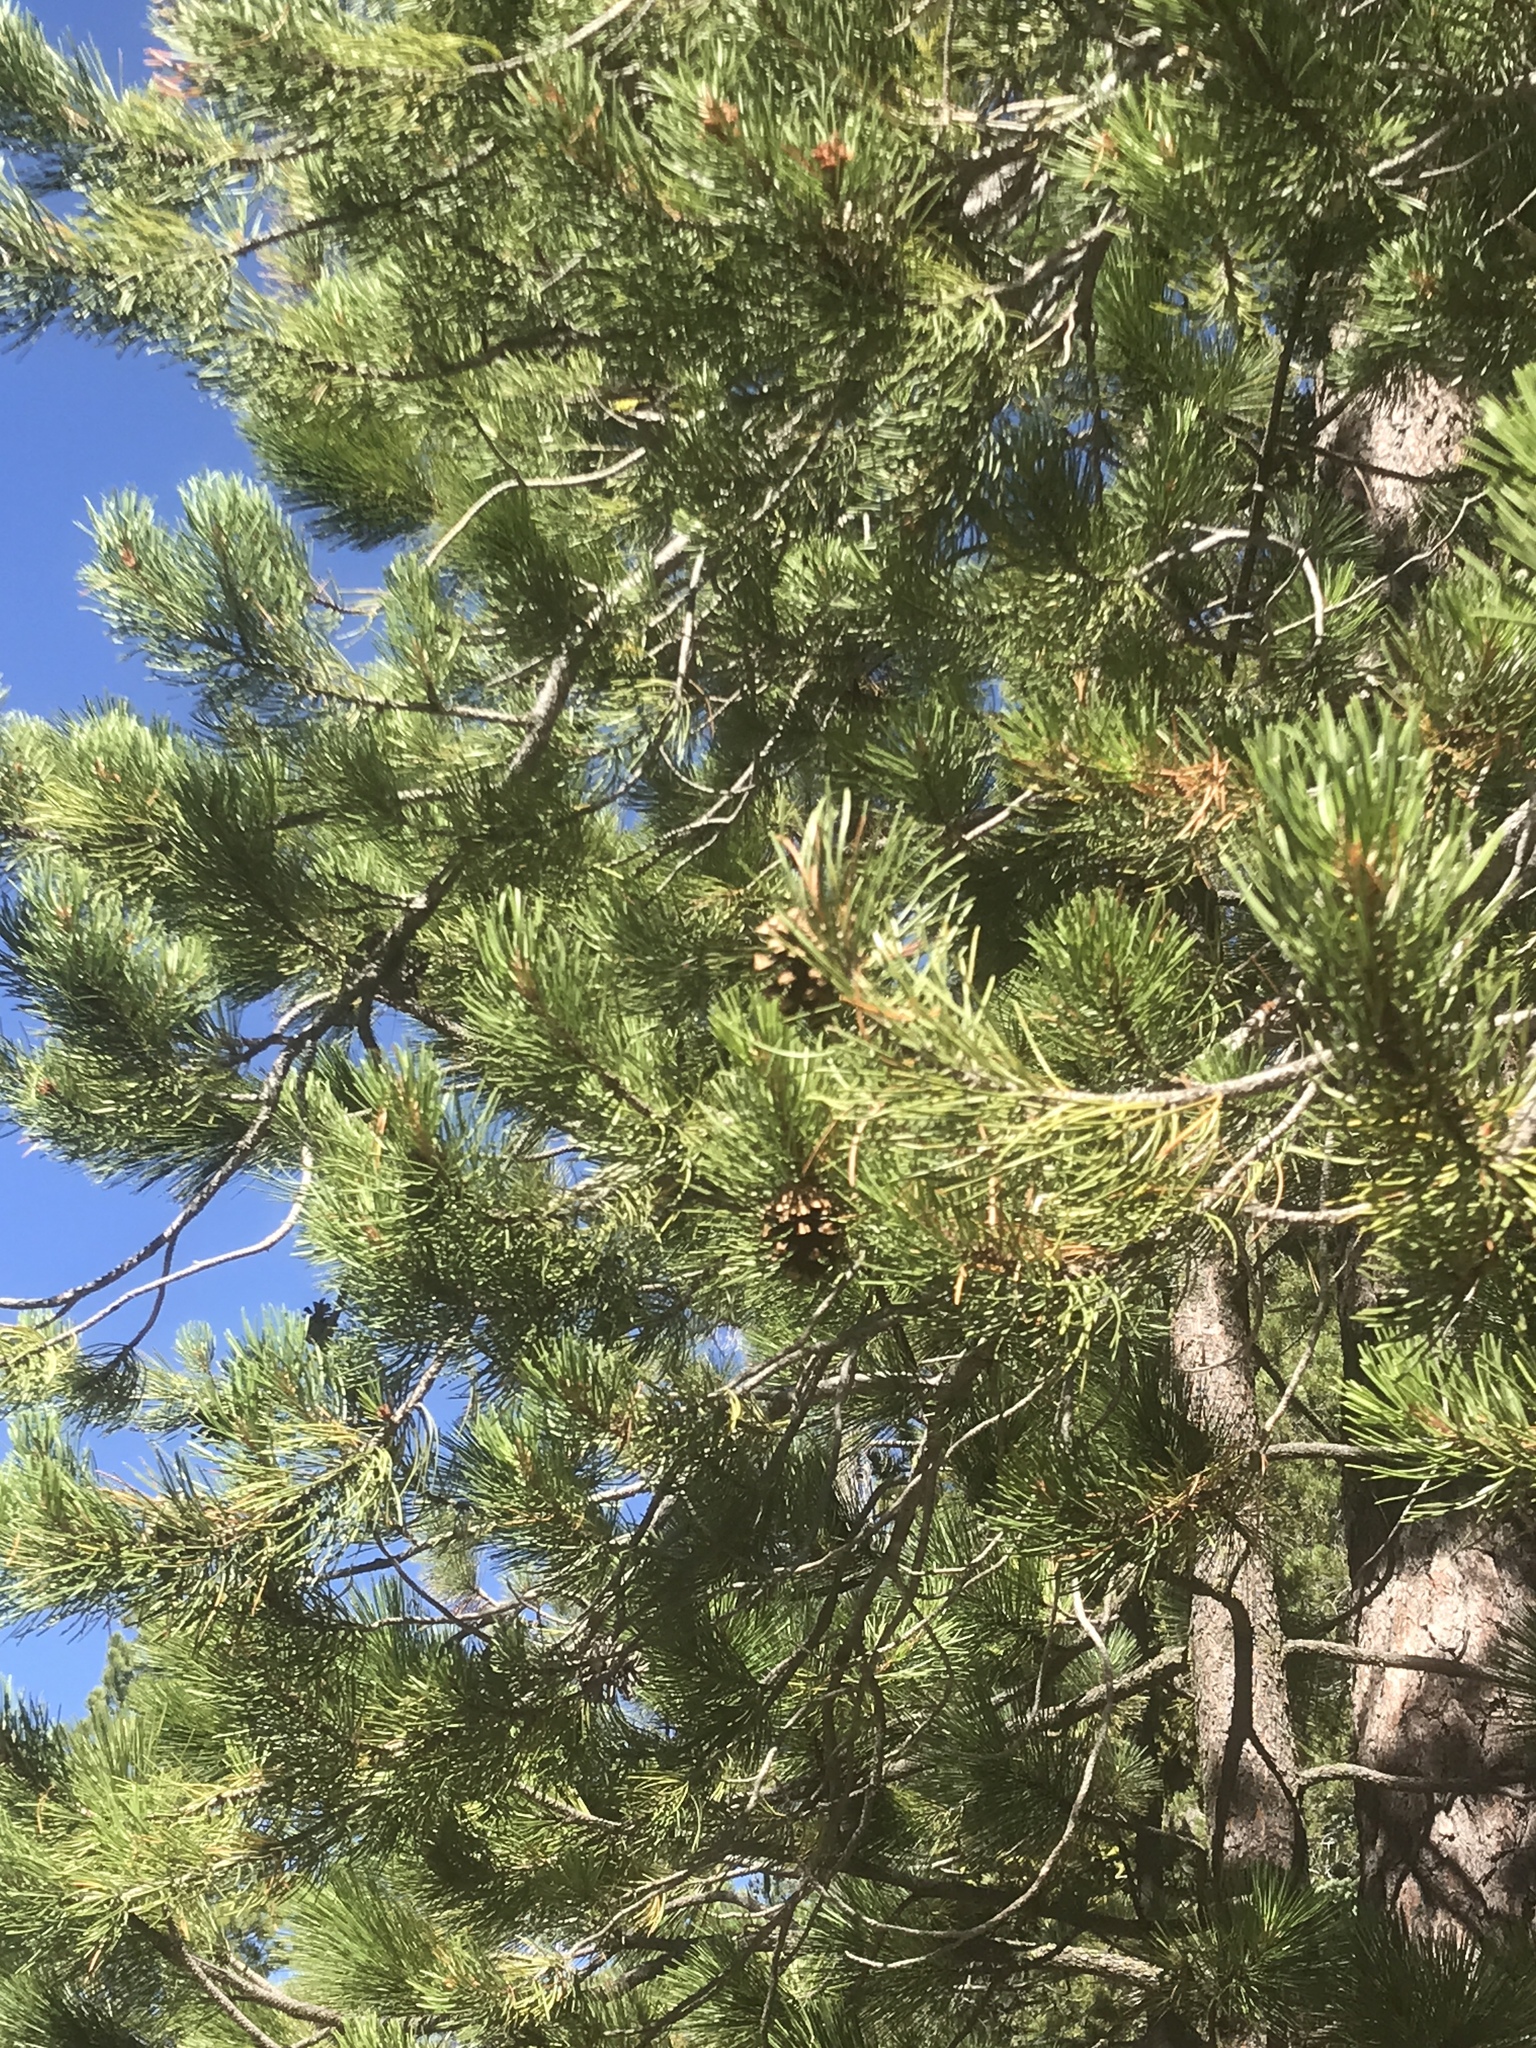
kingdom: Plantae
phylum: Tracheophyta
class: Pinopsida
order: Pinales
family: Pinaceae
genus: Pinus
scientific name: Pinus contorta
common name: Lodgepole pine
